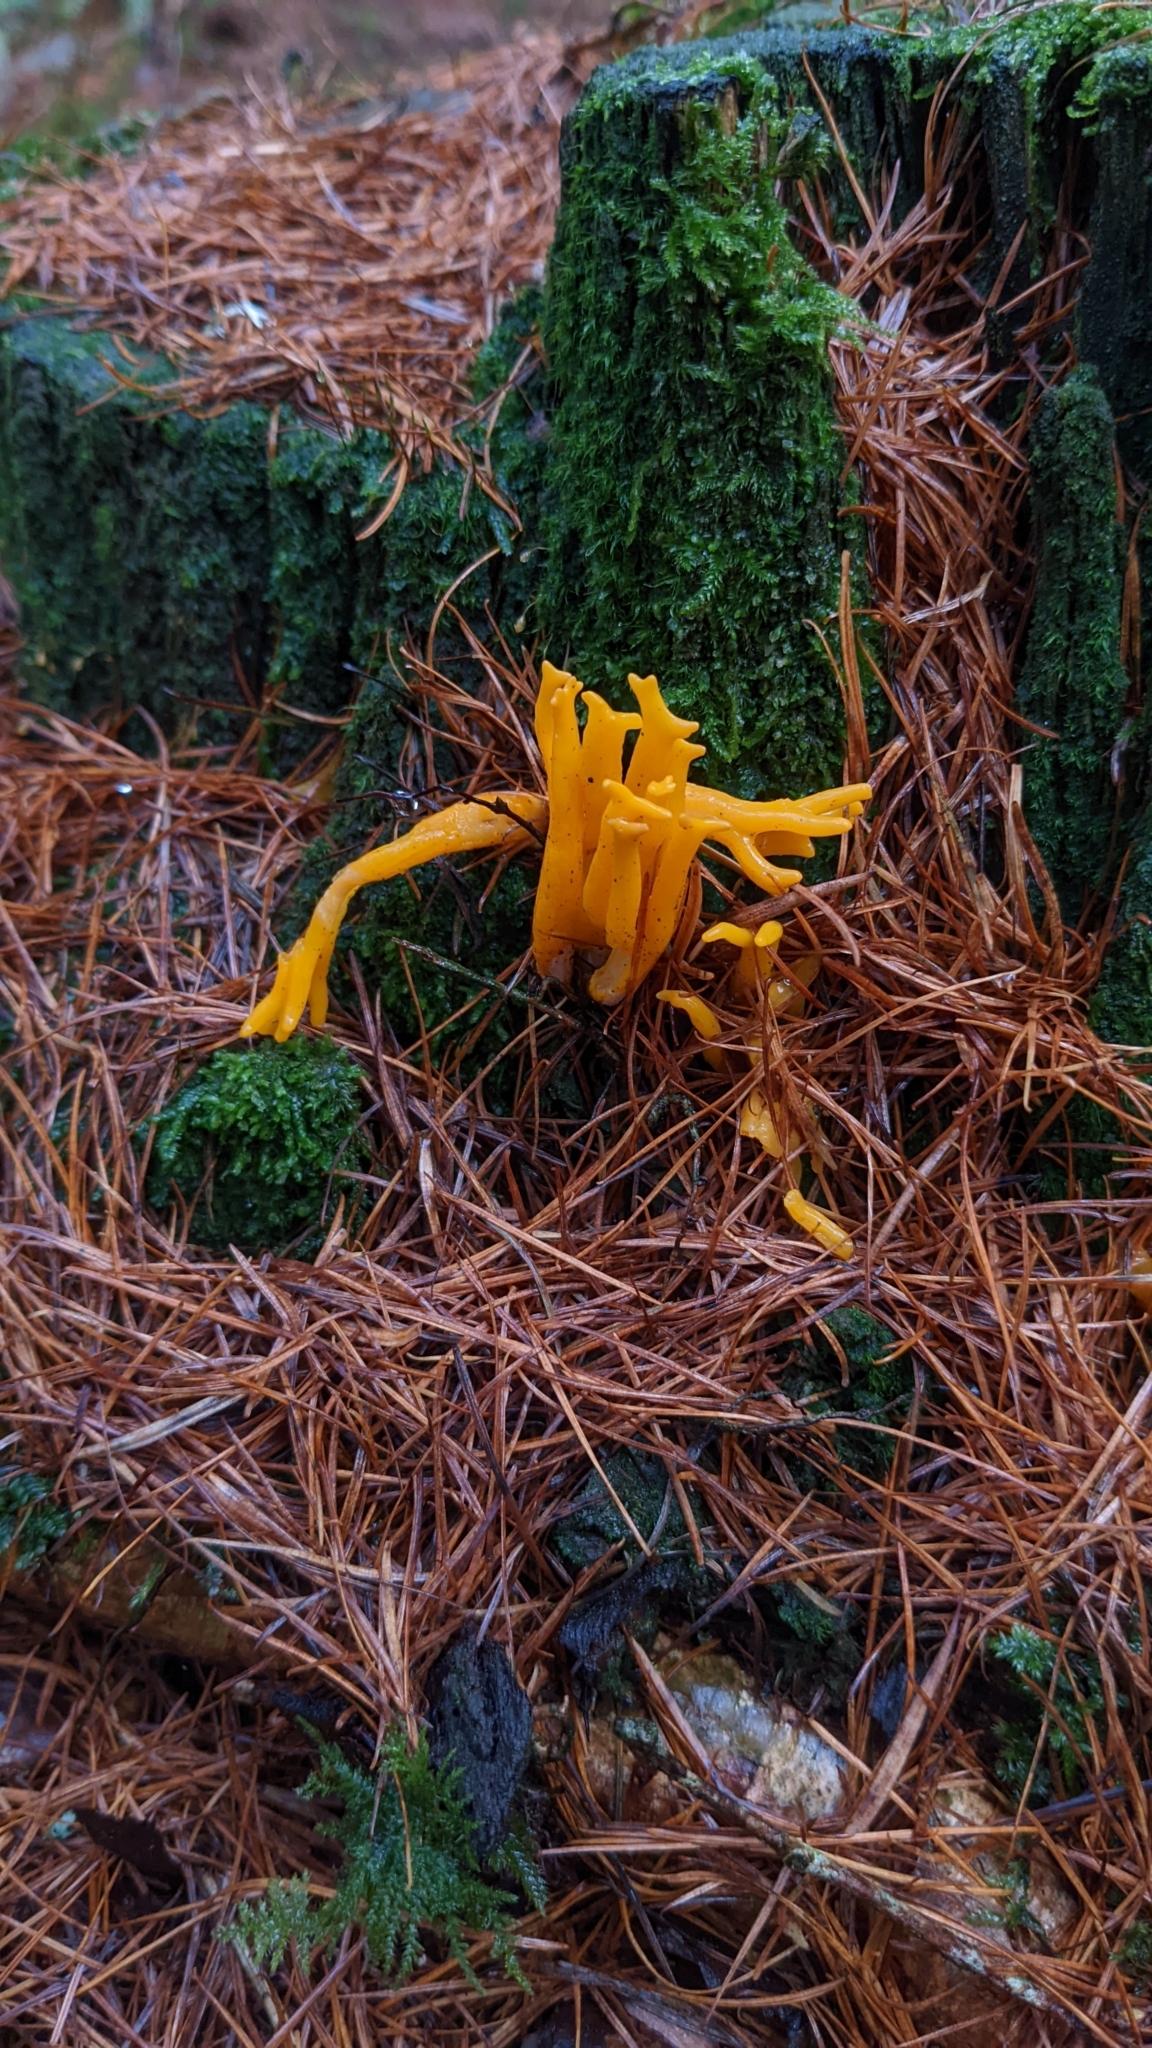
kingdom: Fungi
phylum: Basidiomycota
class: Dacrymycetes
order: Dacrymycetales
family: Dacrymycetaceae
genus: Calocera
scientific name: Calocera viscosa
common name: Yellow stagshorn
